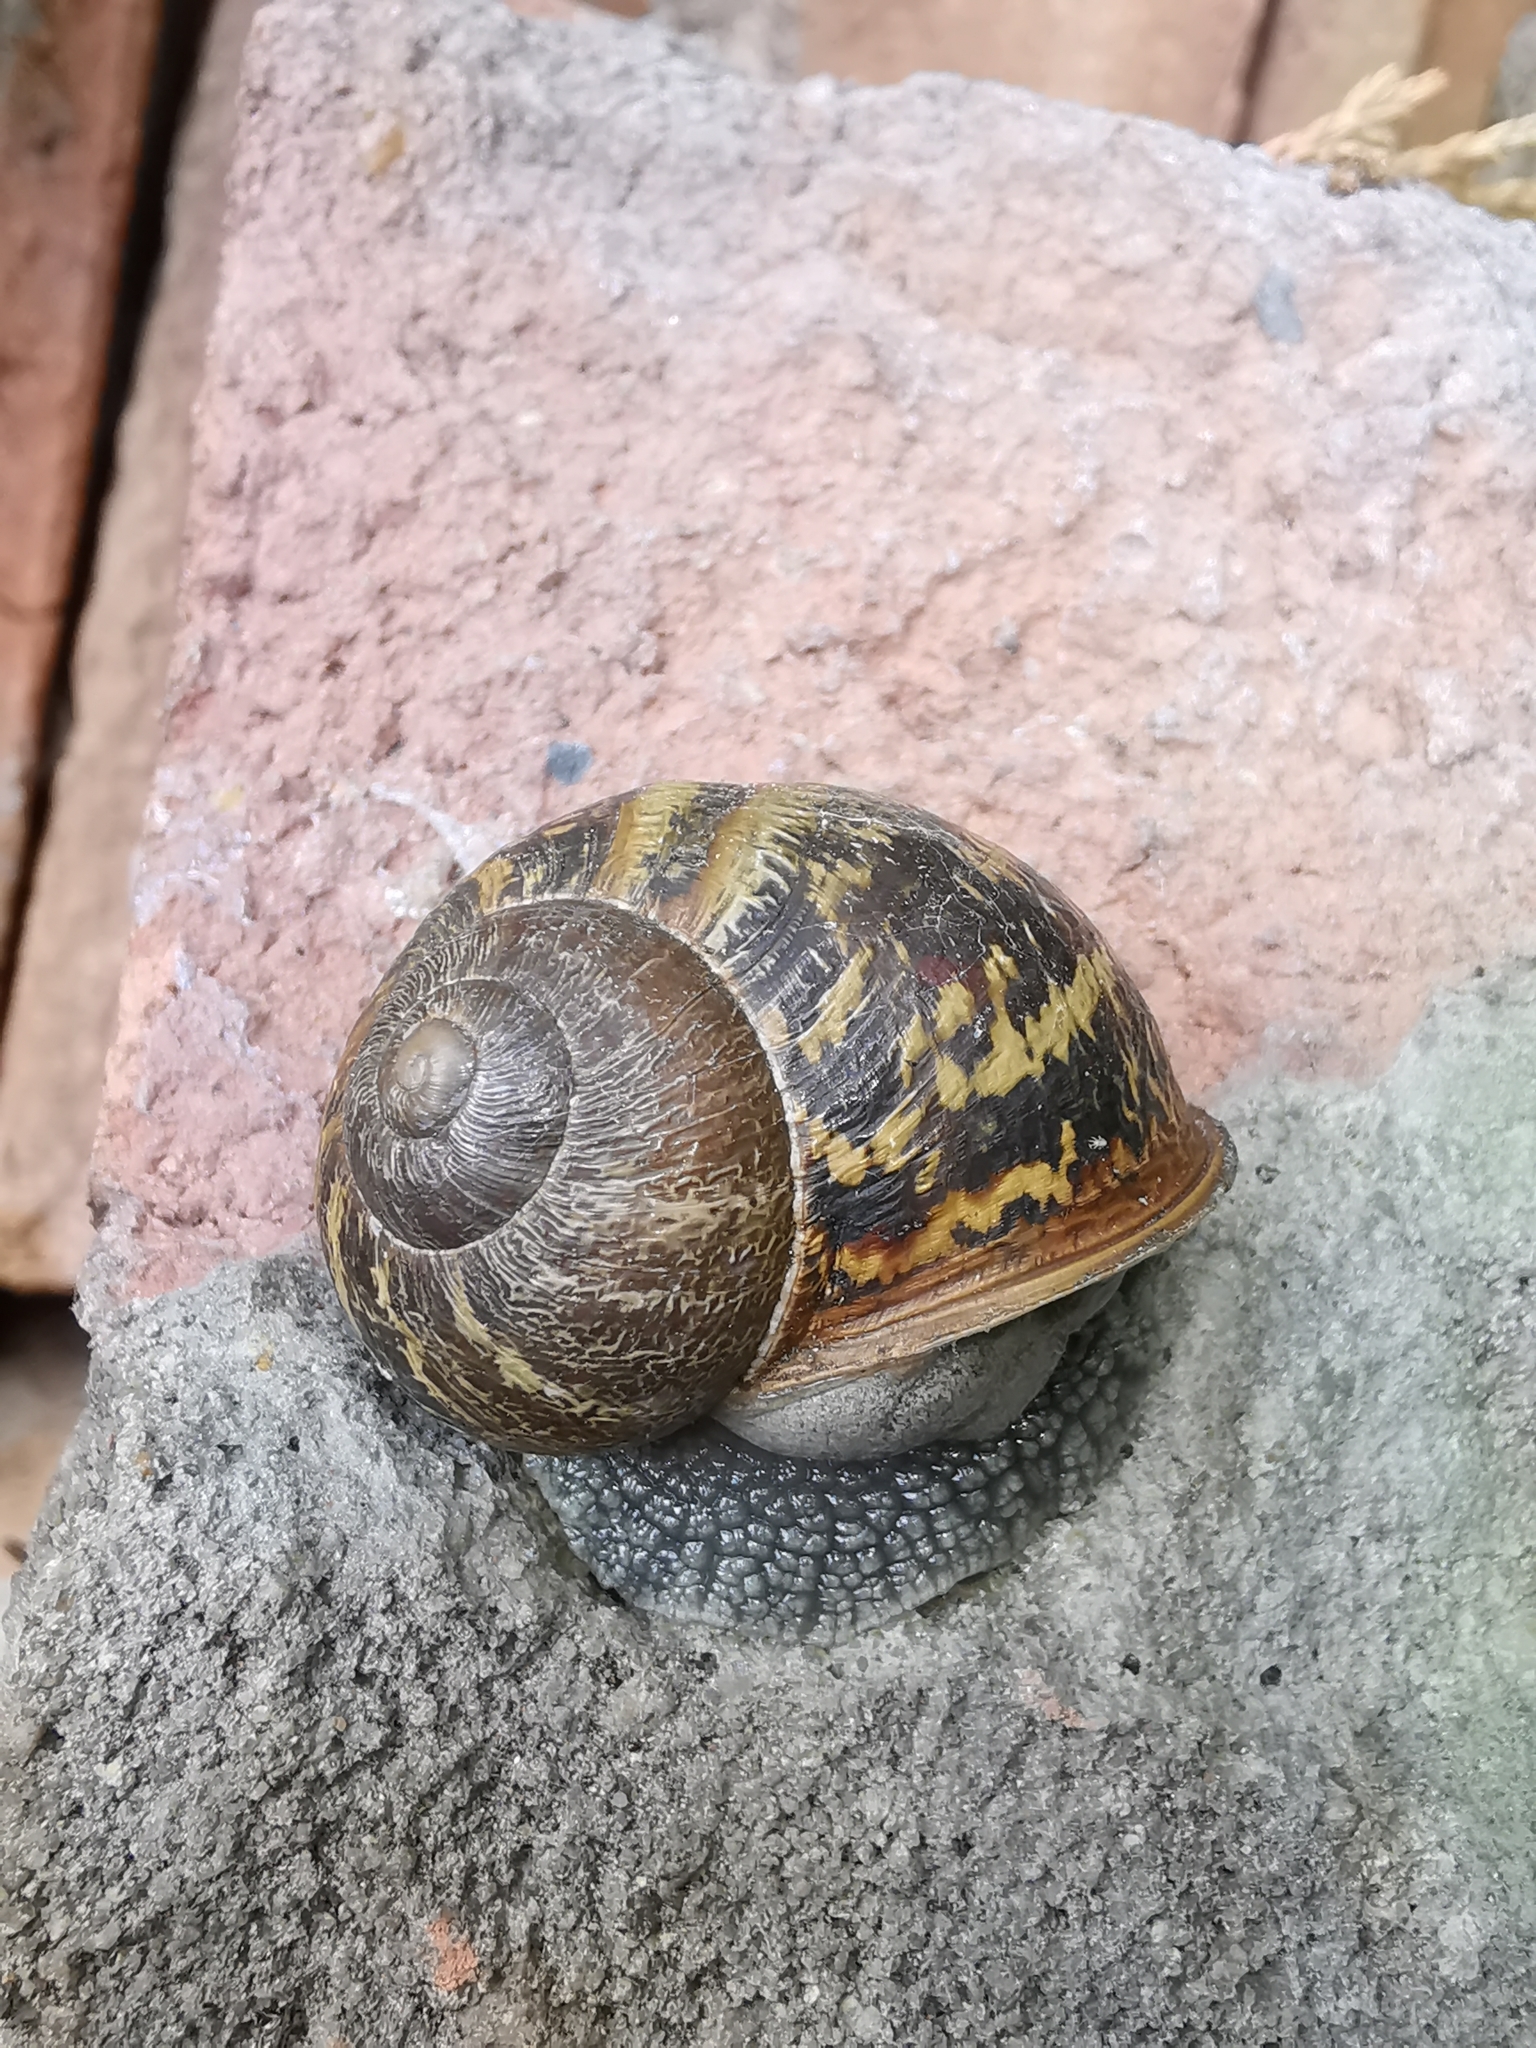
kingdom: Animalia
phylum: Mollusca
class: Gastropoda
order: Stylommatophora
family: Helicidae
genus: Cornu
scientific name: Cornu aspersum
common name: Brown garden snail
